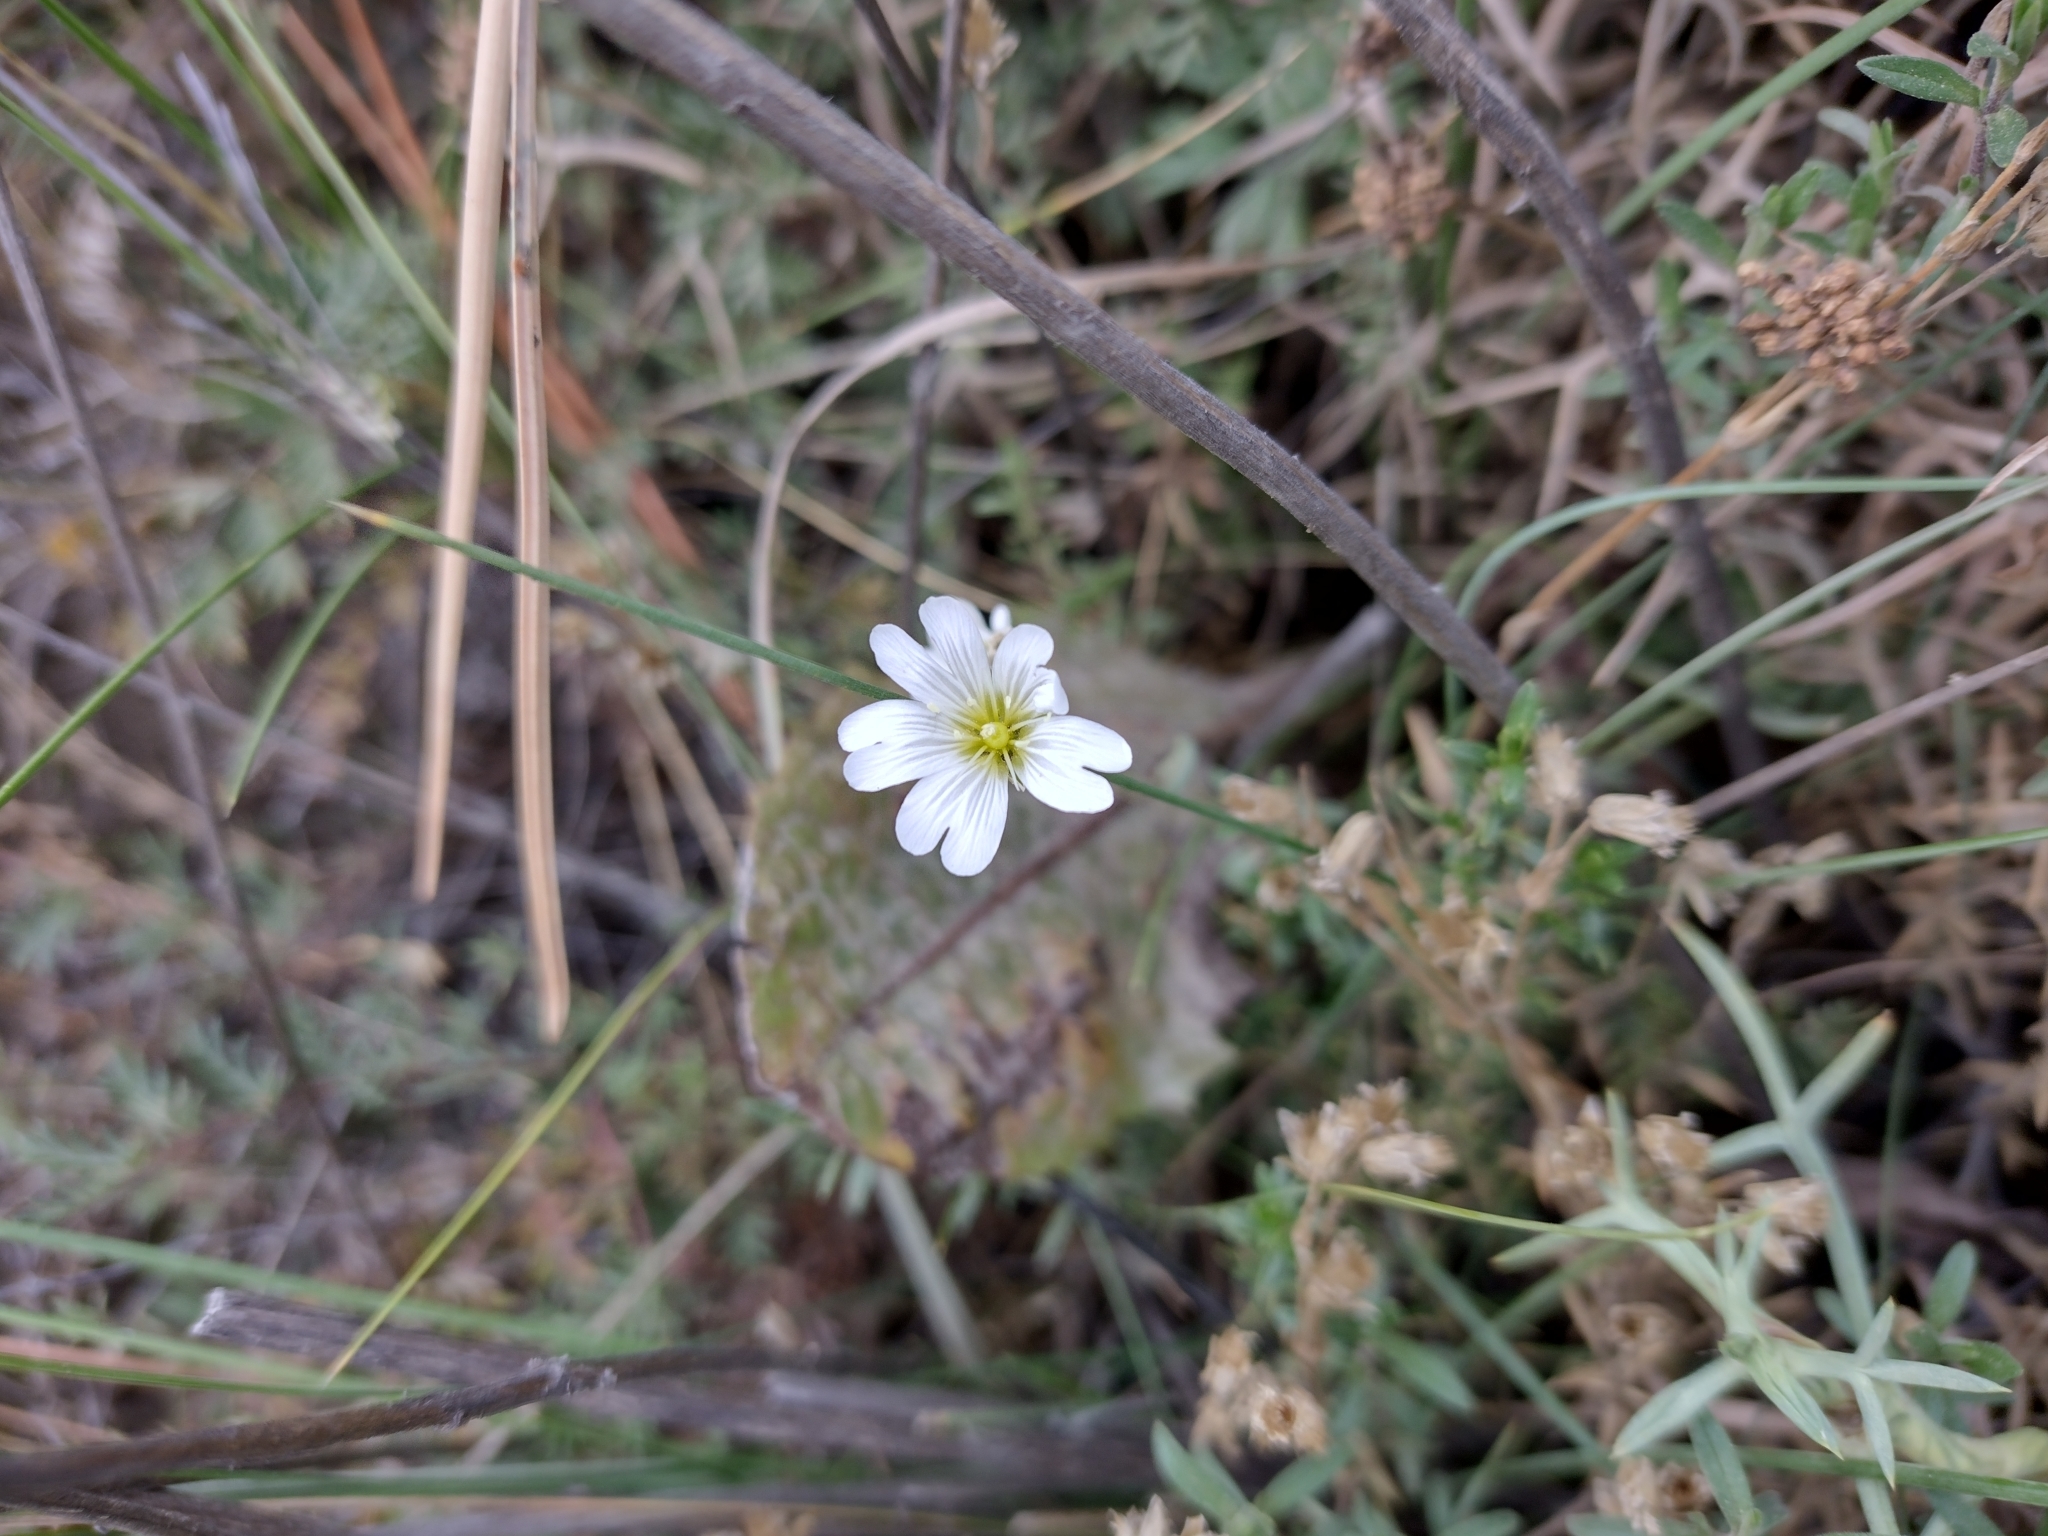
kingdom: Plantae
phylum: Tracheophyta
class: Magnoliopsida
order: Caryophyllales
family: Caryophyllaceae
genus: Cerastium
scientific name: Cerastium arvense
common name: Field mouse-ear
